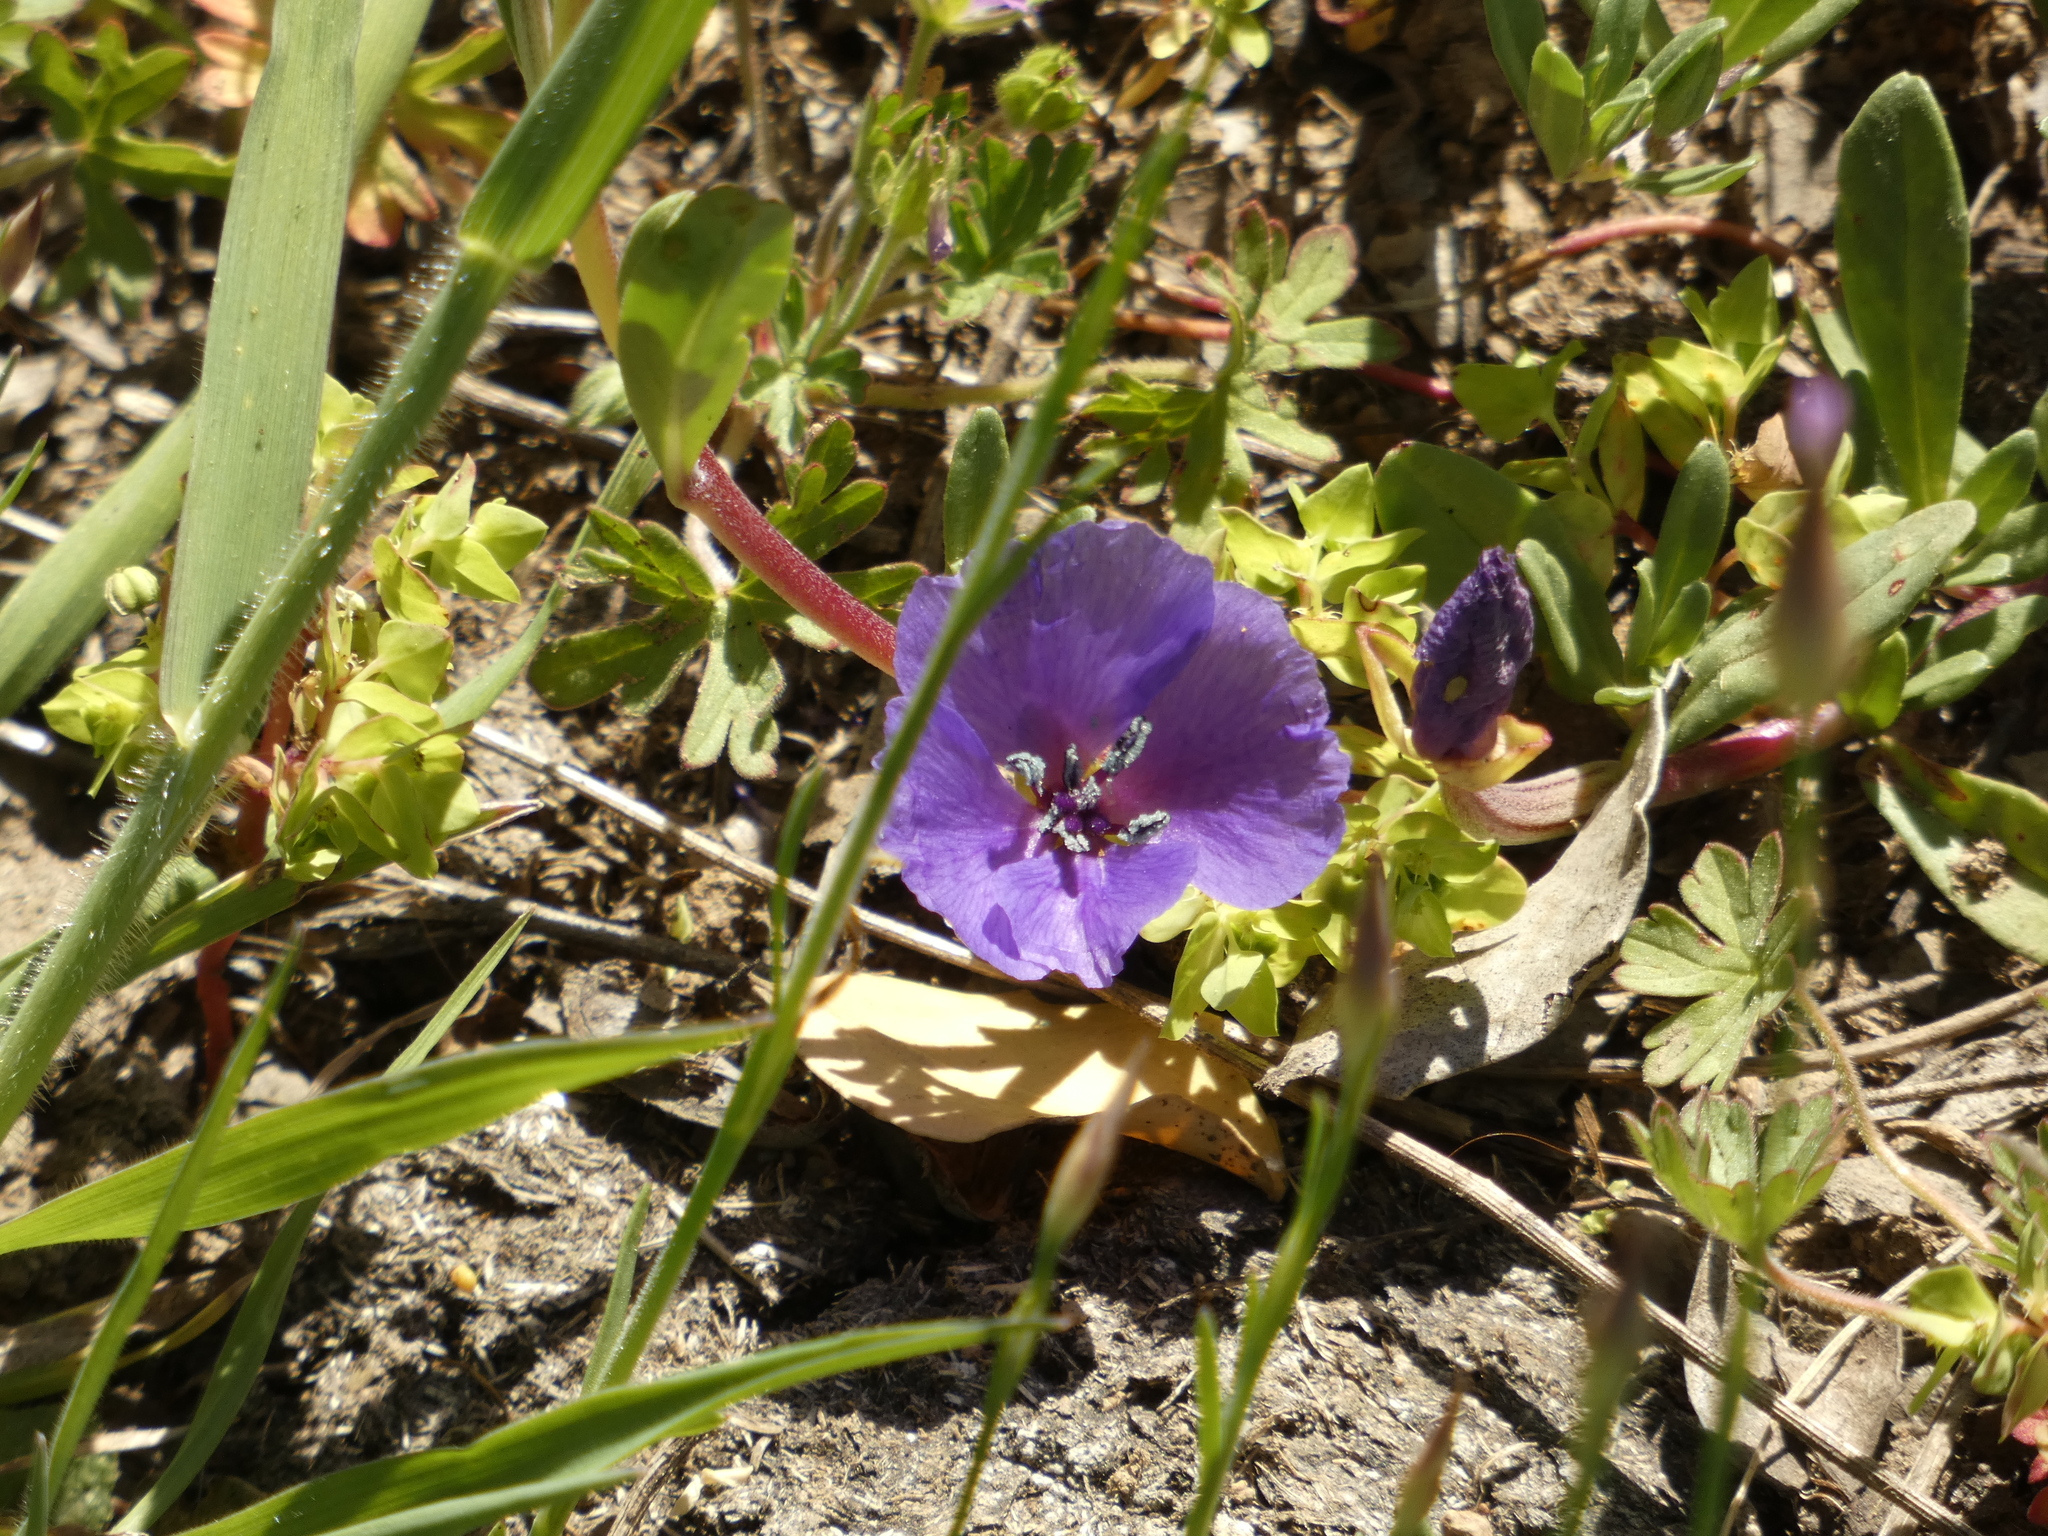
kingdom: Plantae
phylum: Tracheophyta
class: Magnoliopsida
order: Myrtales
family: Onagraceae
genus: Clarkia
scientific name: Clarkia tenella
